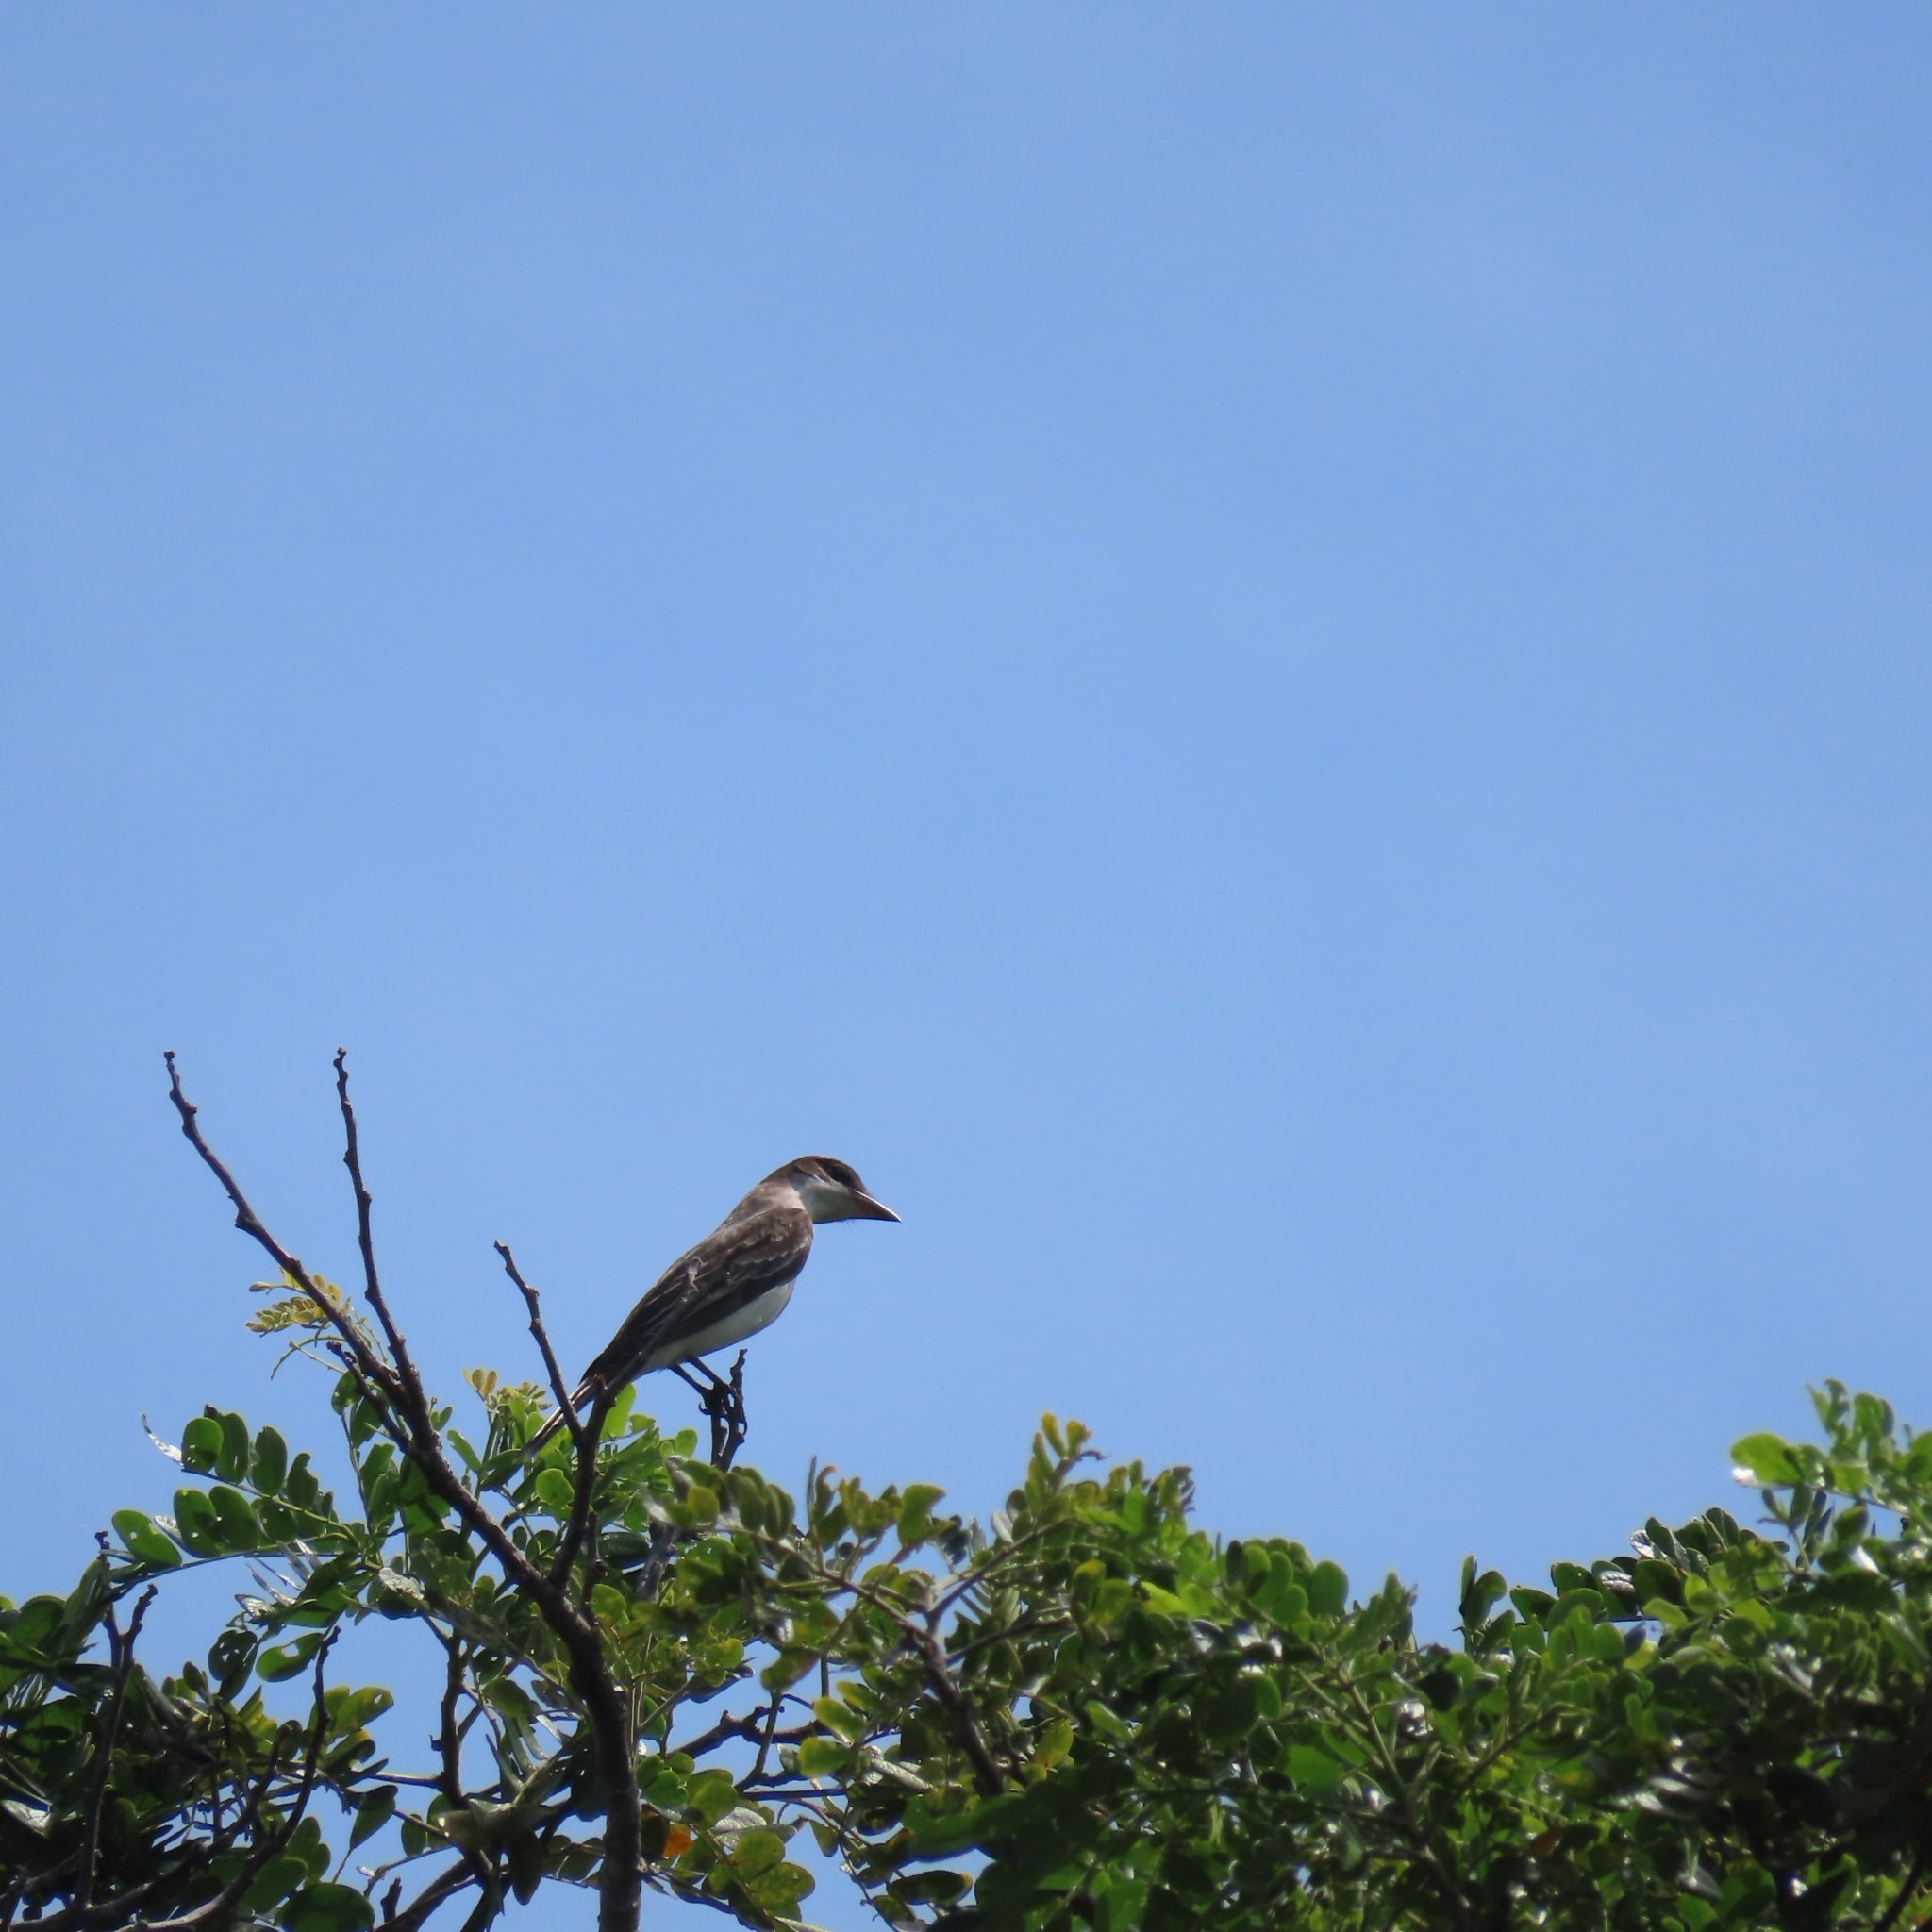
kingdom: Animalia
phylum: Chordata
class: Aves
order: Passeriformes
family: Tyrannidae
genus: Tyrannus
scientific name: Tyrannus tyrannus
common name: Eastern kingbird
